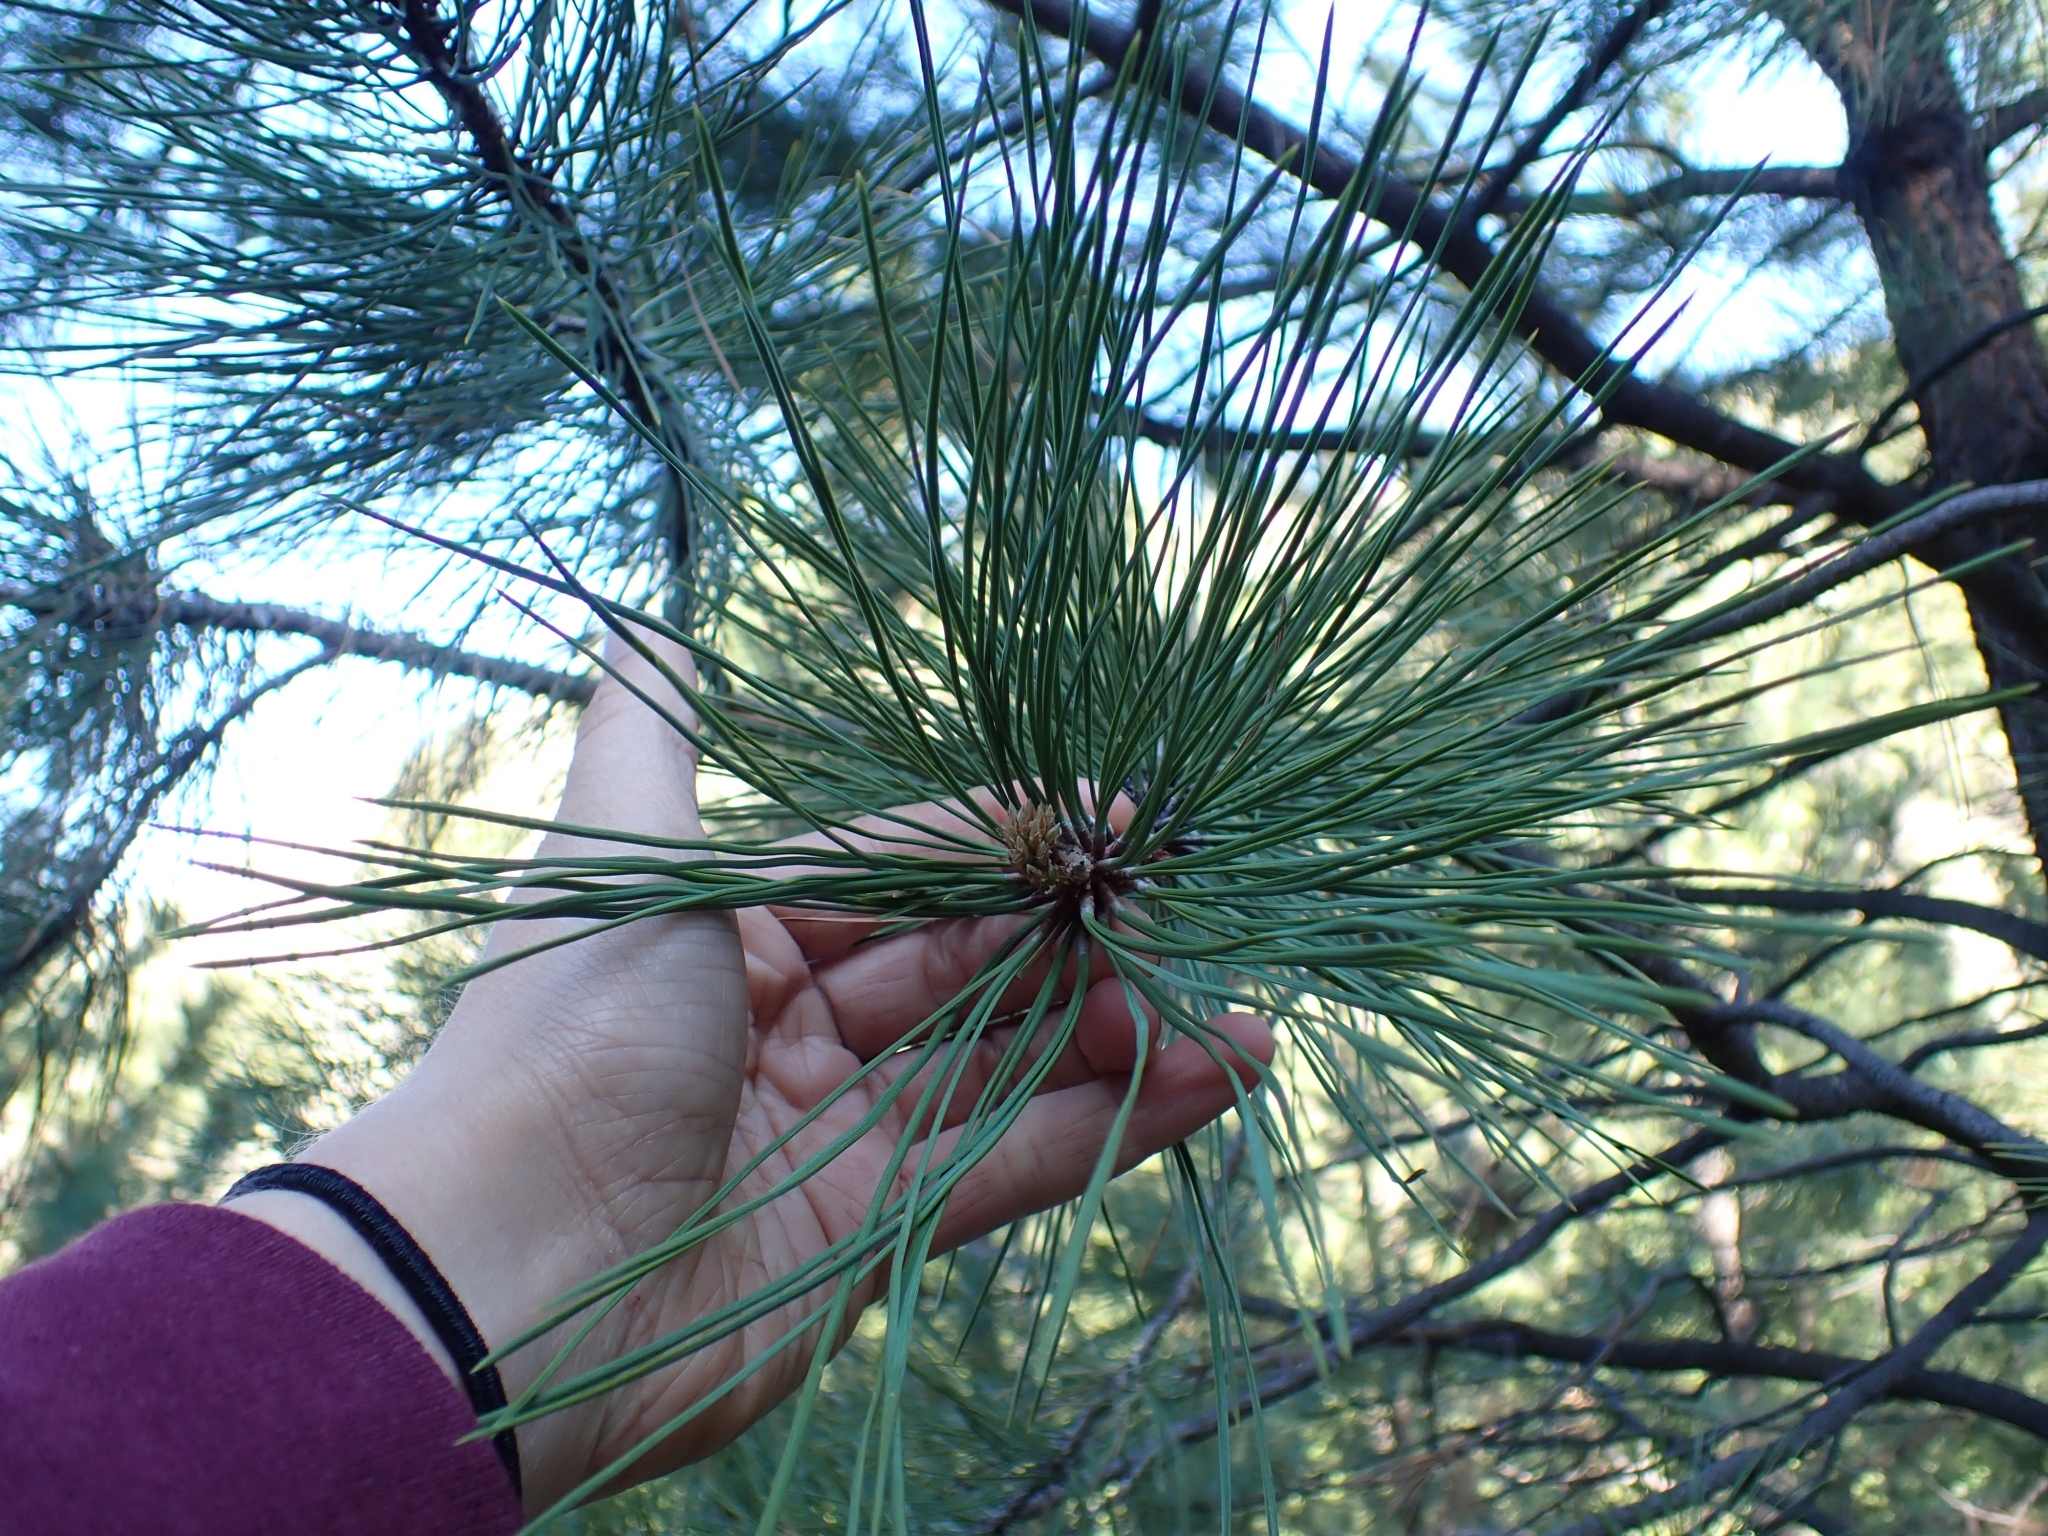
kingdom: Plantae
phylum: Tracheophyta
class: Pinopsida
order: Pinales
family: Pinaceae
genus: Pinus
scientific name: Pinus ponderosa
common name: Western yellow-pine
